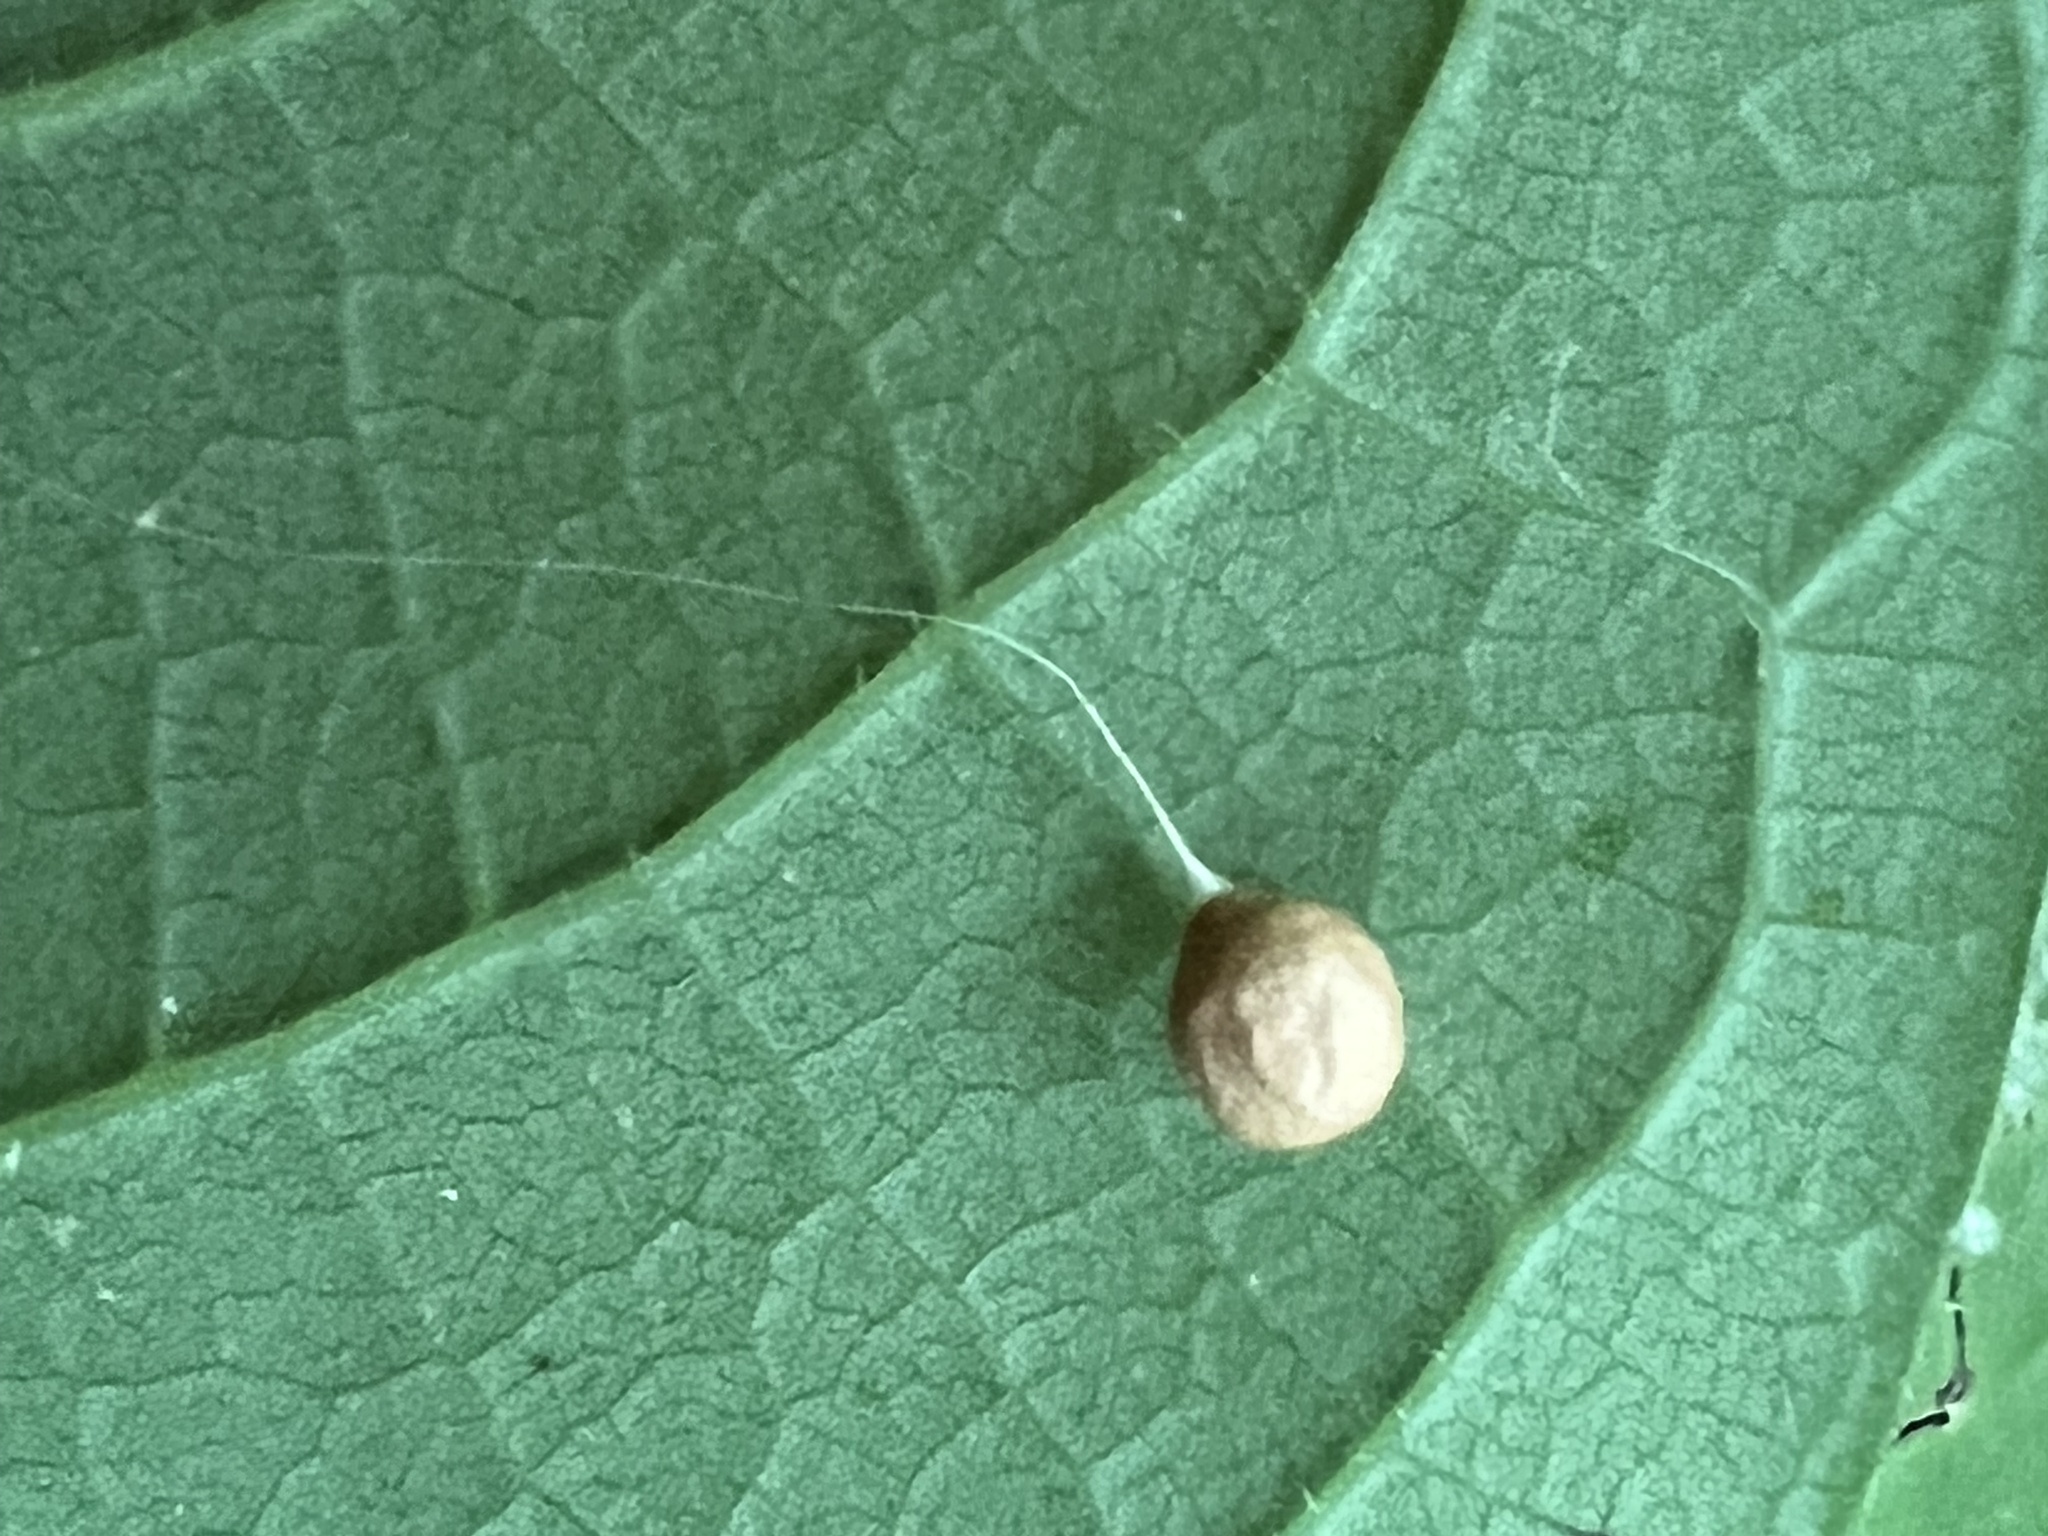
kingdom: Animalia
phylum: Arthropoda
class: Arachnida
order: Araneae
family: Theridiosomatidae
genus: Theridiosoma
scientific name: Theridiosoma gemmosum
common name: Ray spider
